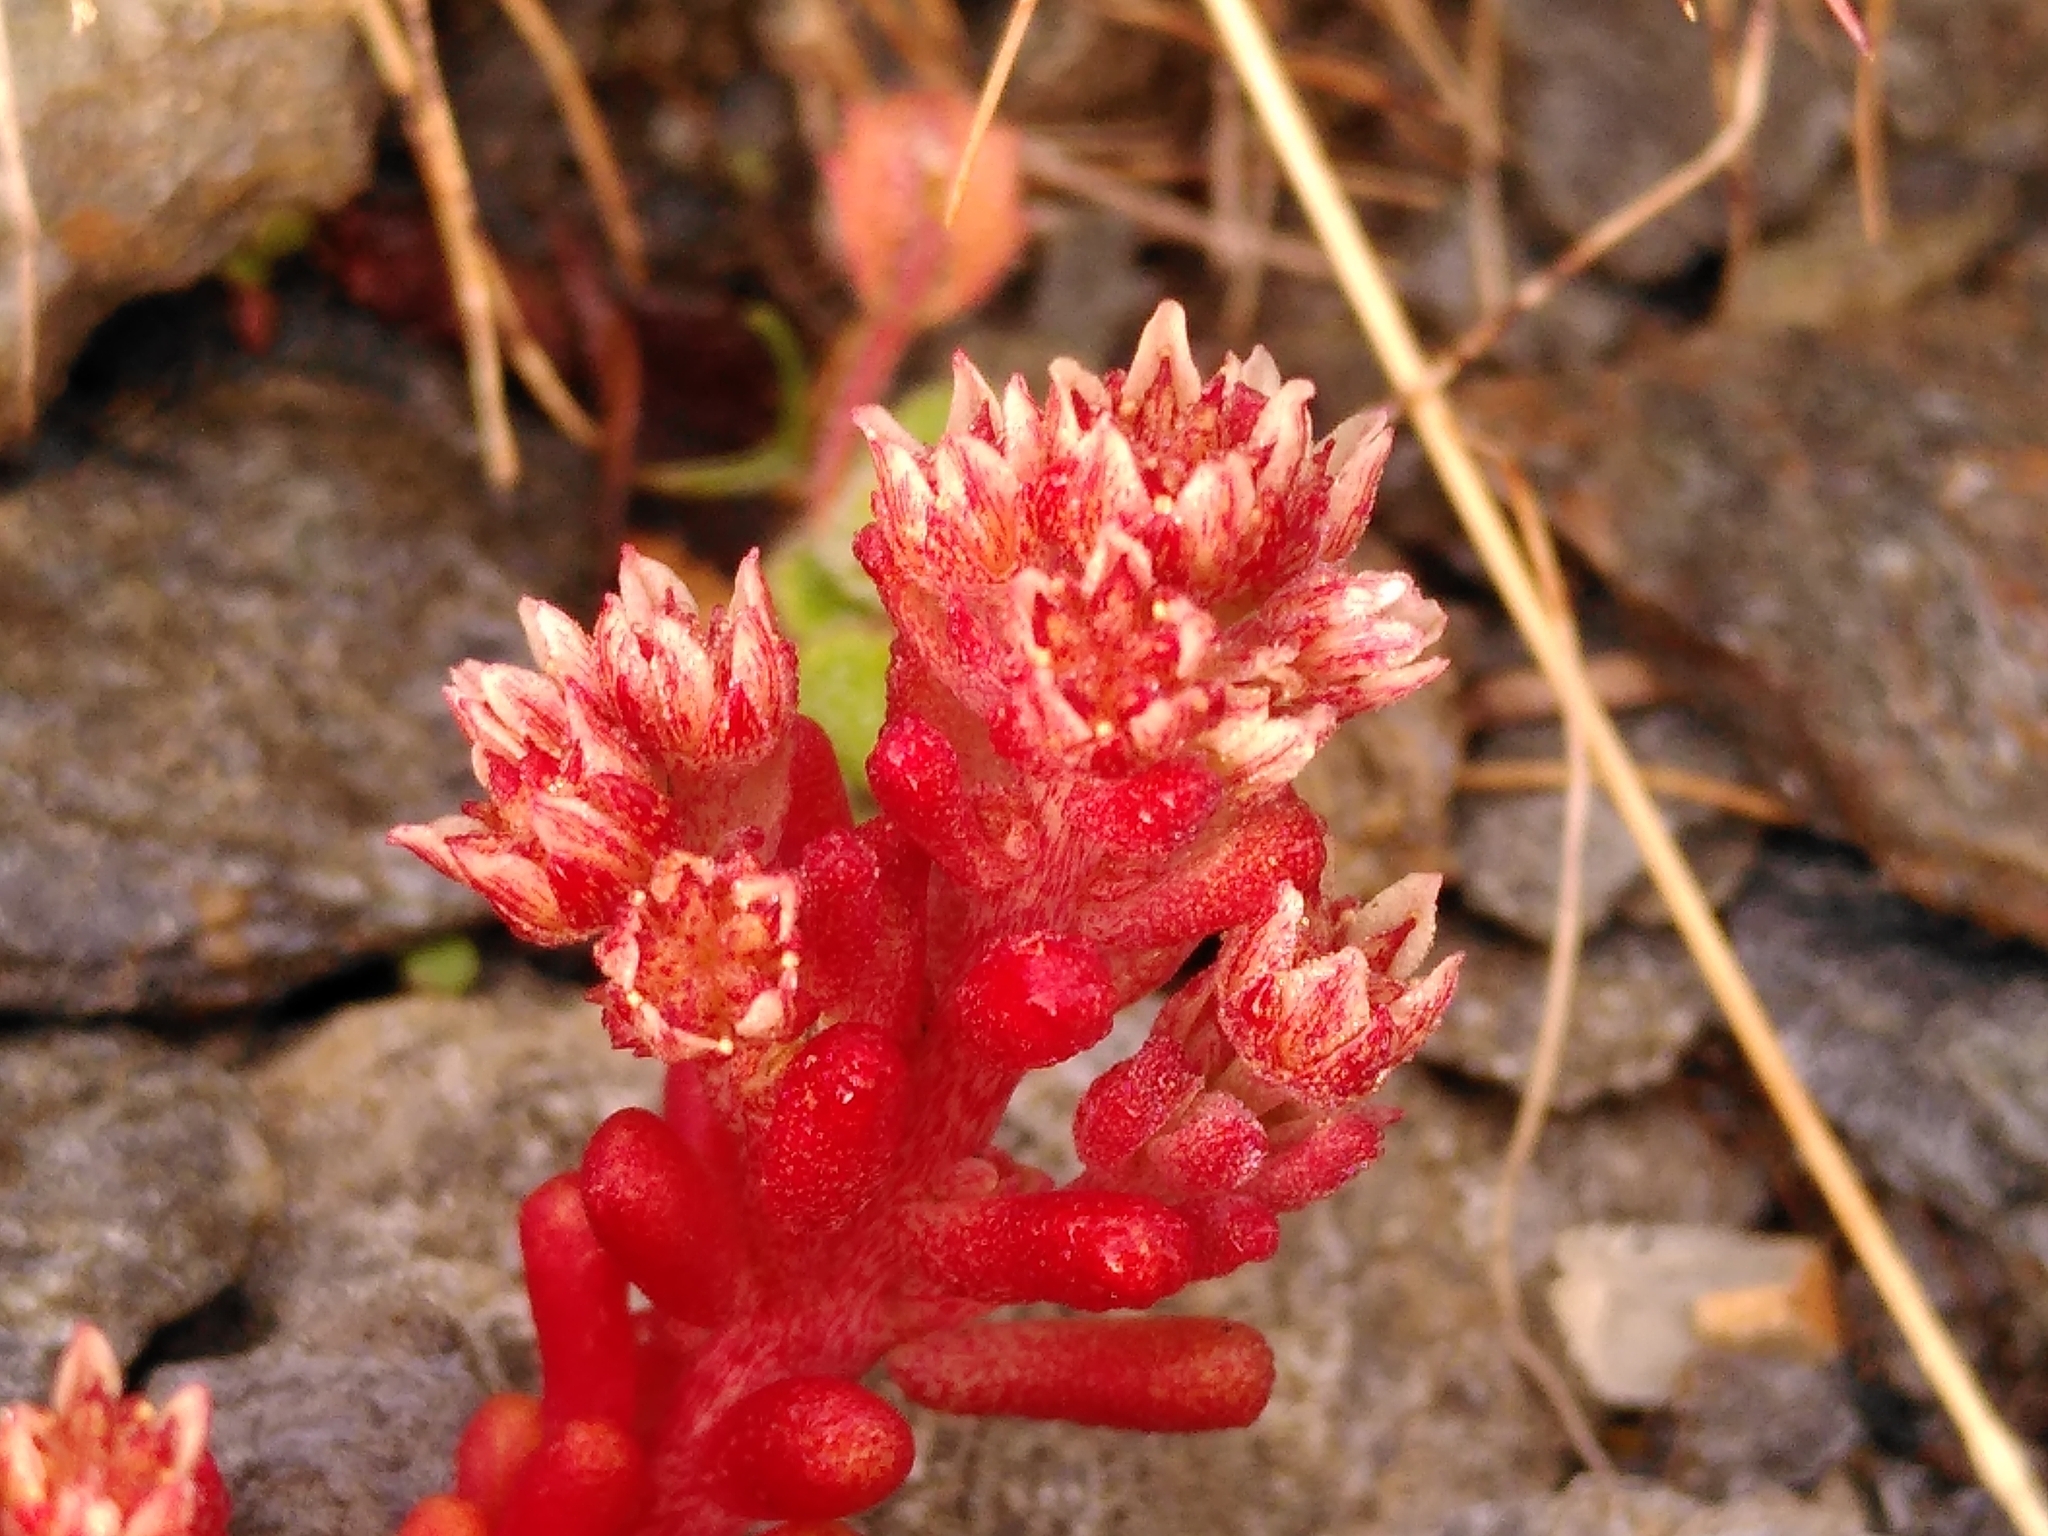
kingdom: Plantae
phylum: Tracheophyta
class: Magnoliopsida
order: Saxifragales
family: Crassulaceae
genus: Sedum
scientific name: Sedum atratum
